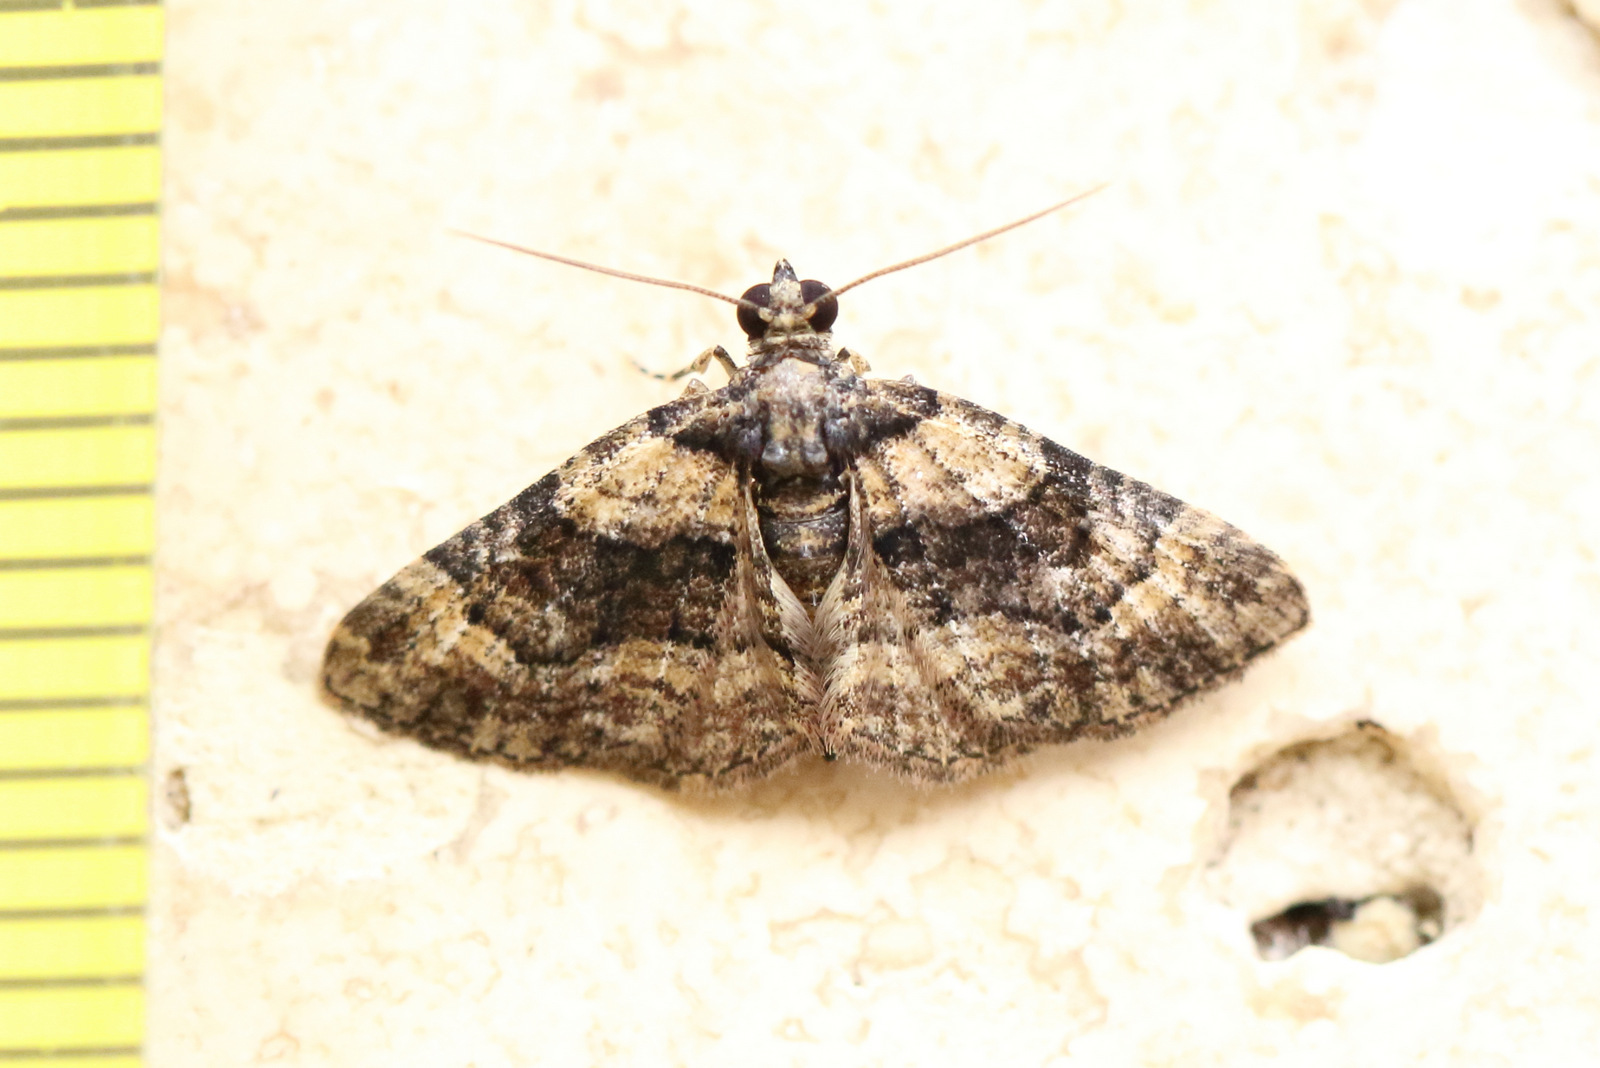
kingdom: Animalia
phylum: Arthropoda
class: Insecta
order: Lepidoptera
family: Geometridae
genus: Epyaxa
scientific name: Epyaxa sodaliata
